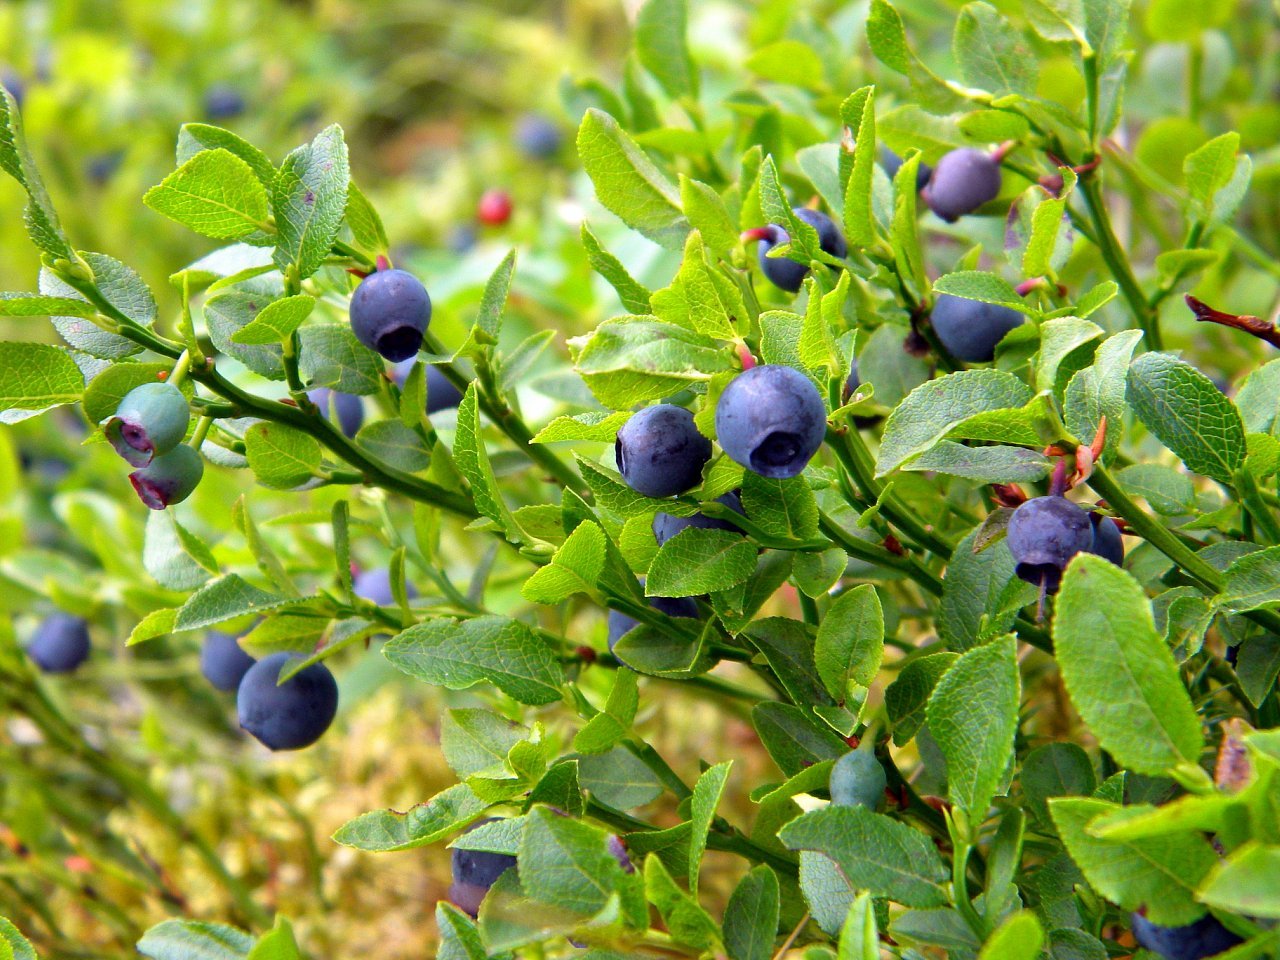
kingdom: Plantae
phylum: Tracheophyta
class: Magnoliopsida
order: Ericales
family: Ericaceae
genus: Vaccinium
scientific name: Vaccinium myrtillus
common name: Bilberry
